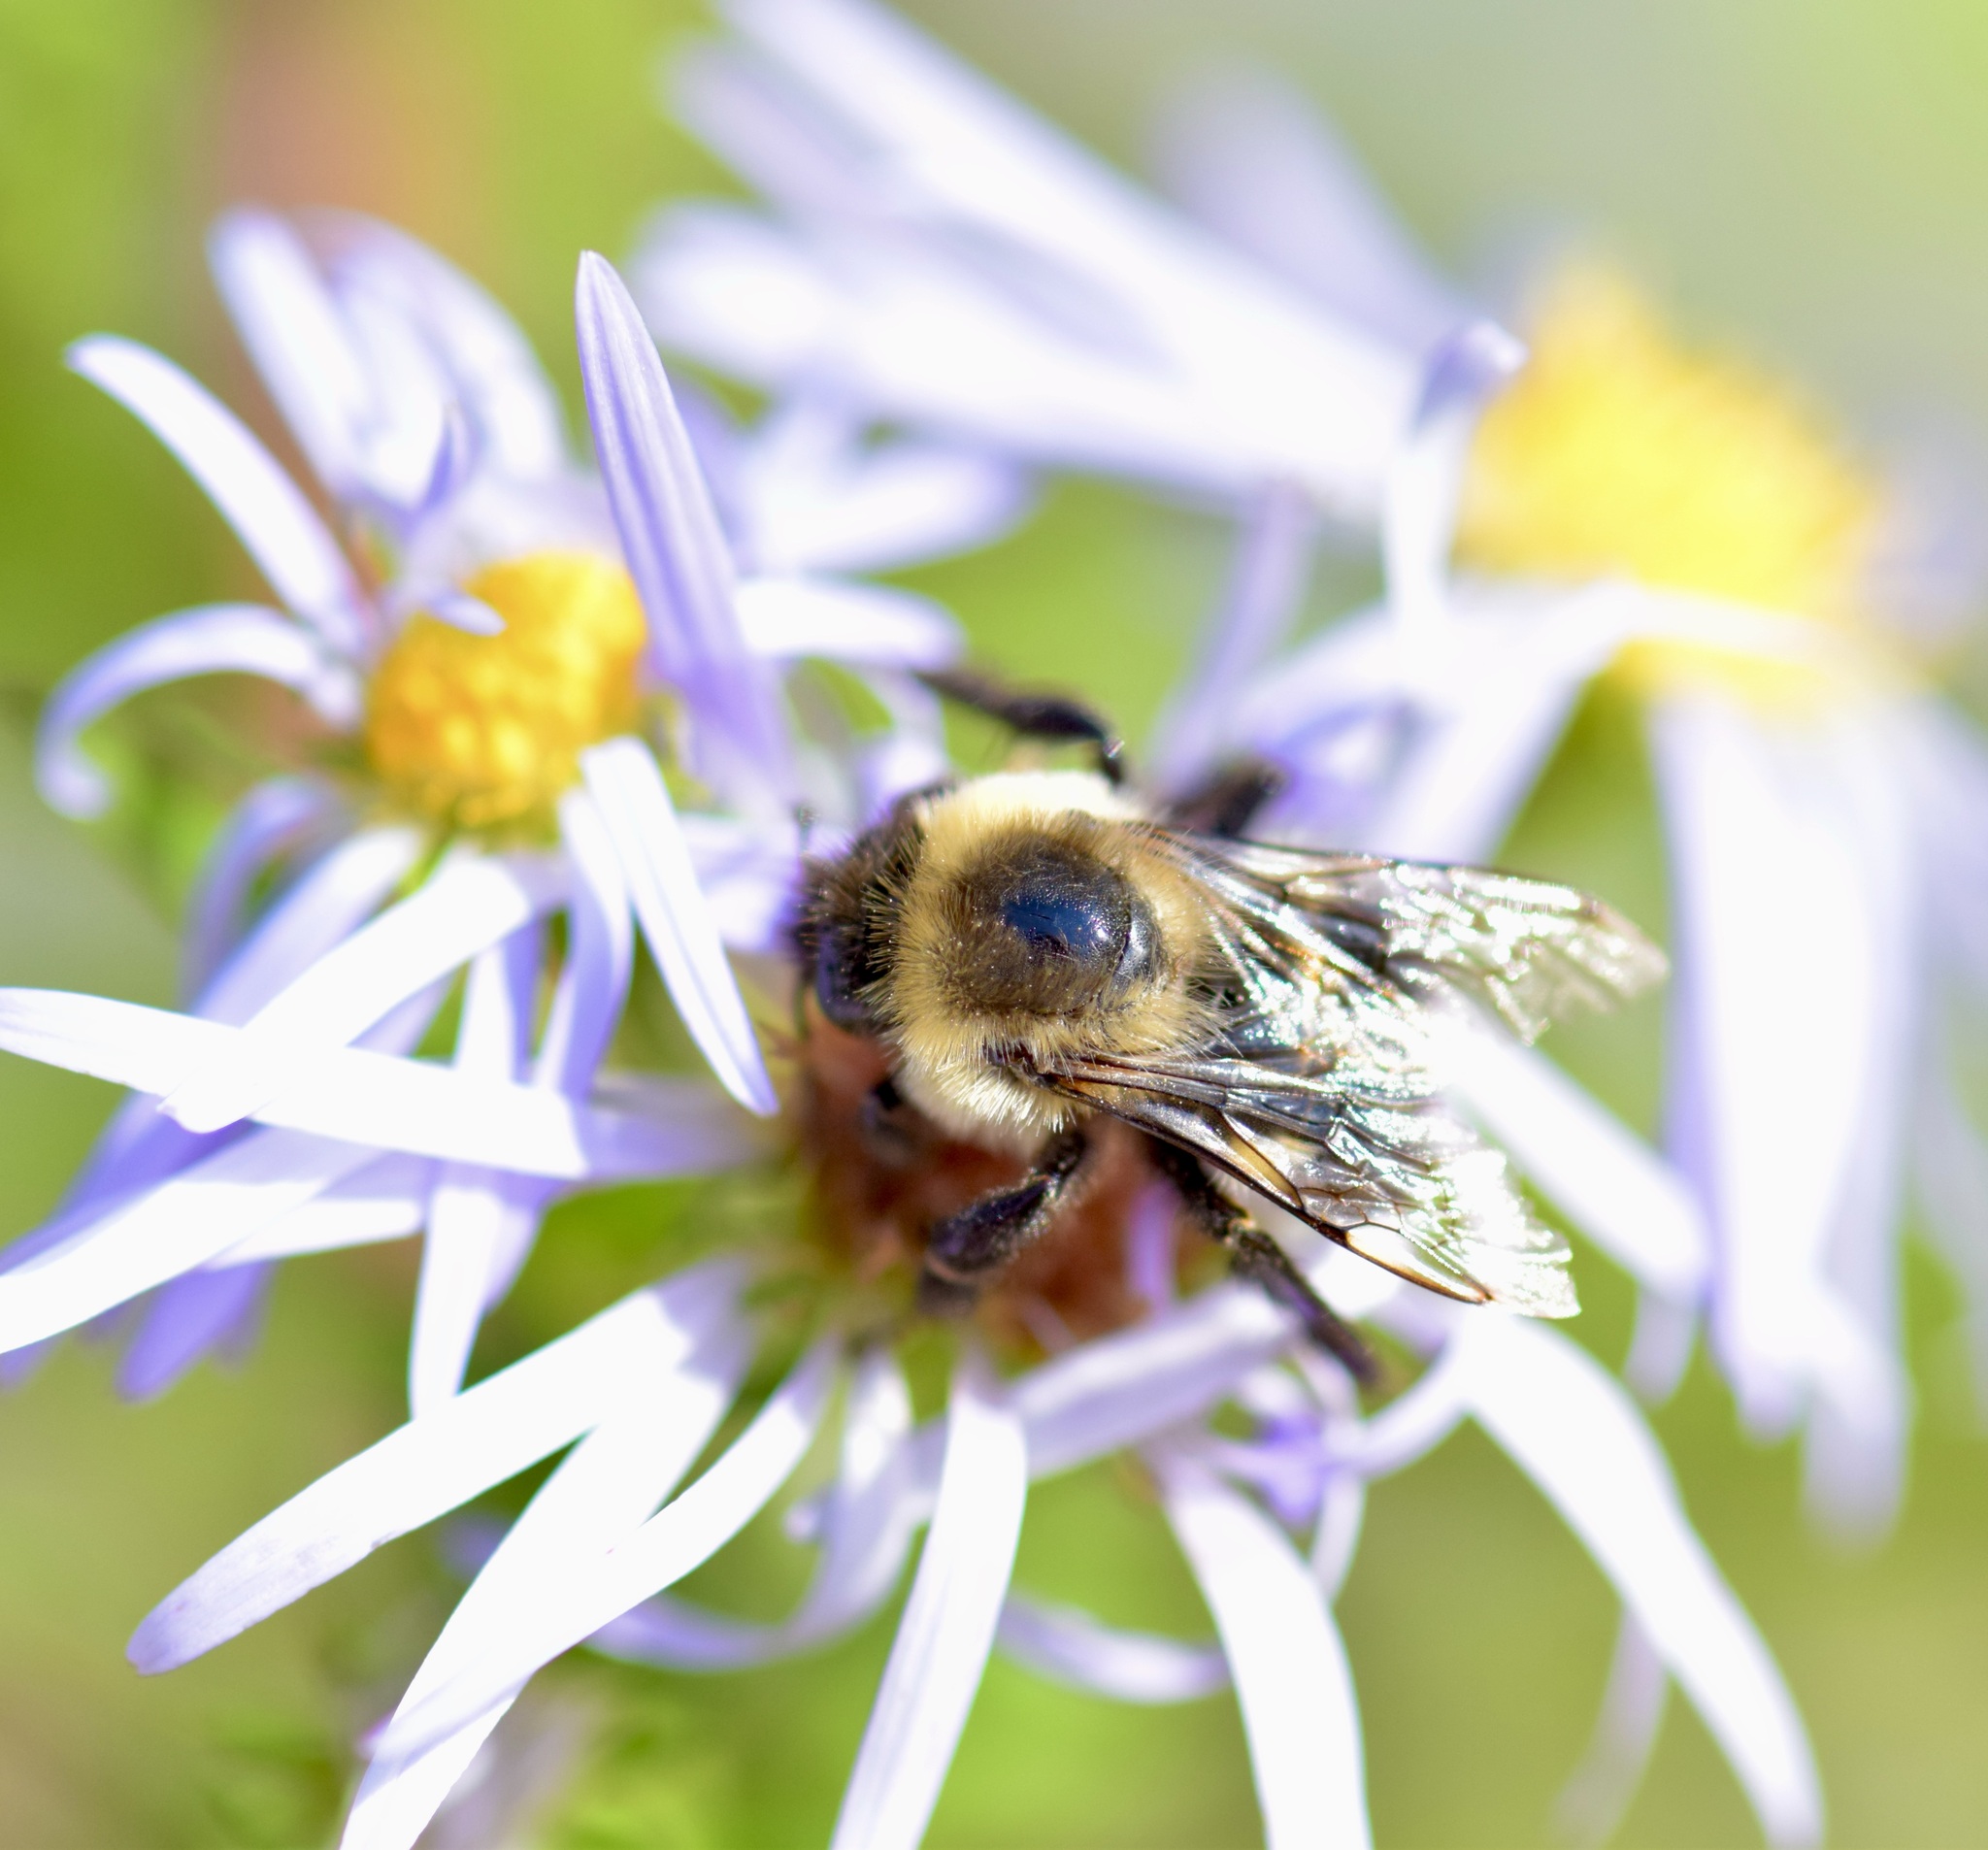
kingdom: Animalia
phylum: Arthropoda
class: Insecta
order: Hymenoptera
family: Apidae
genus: Bombus
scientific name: Bombus impatiens
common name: Common eastern bumble bee
